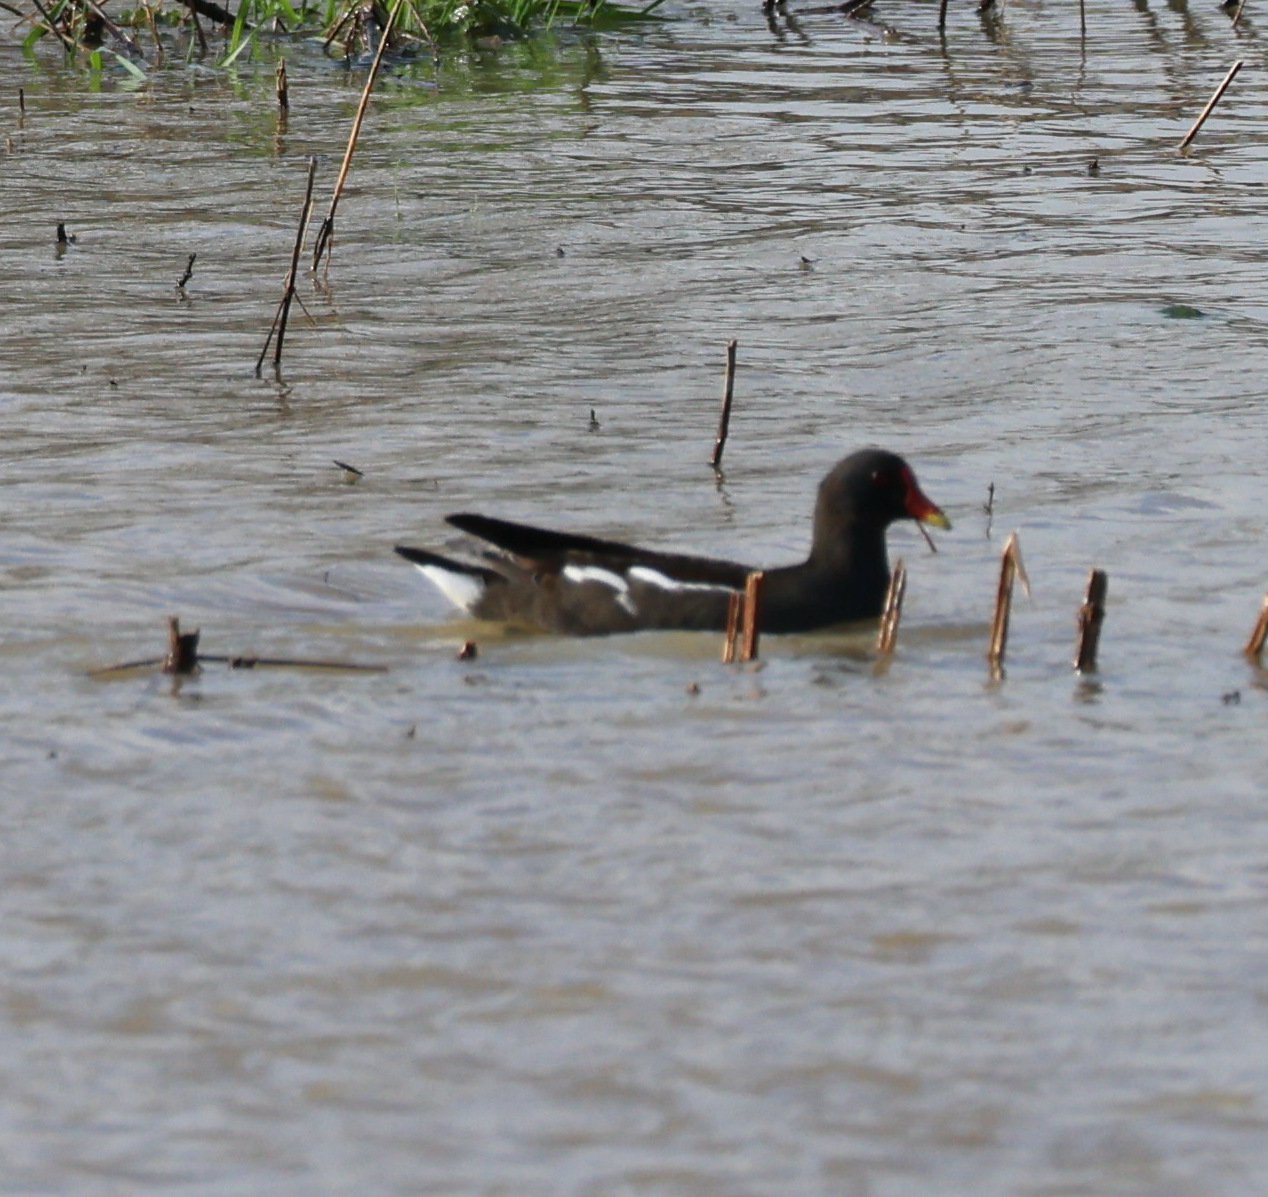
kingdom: Animalia
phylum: Chordata
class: Aves
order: Gruiformes
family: Rallidae
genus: Gallinula
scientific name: Gallinula chloropus
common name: Common moorhen
